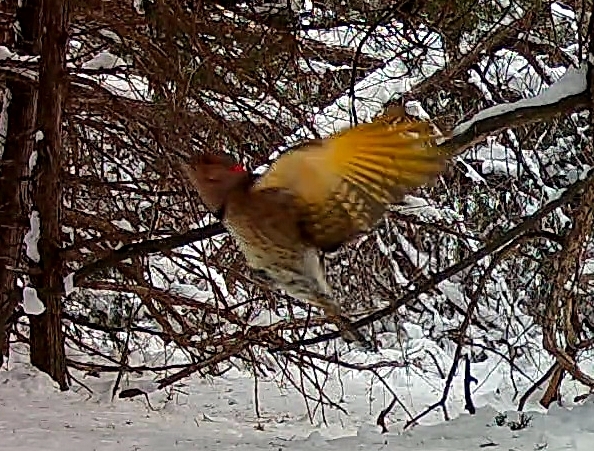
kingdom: Animalia
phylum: Chordata
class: Aves
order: Piciformes
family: Picidae
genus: Colaptes
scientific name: Colaptes auratus
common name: Northern flicker
